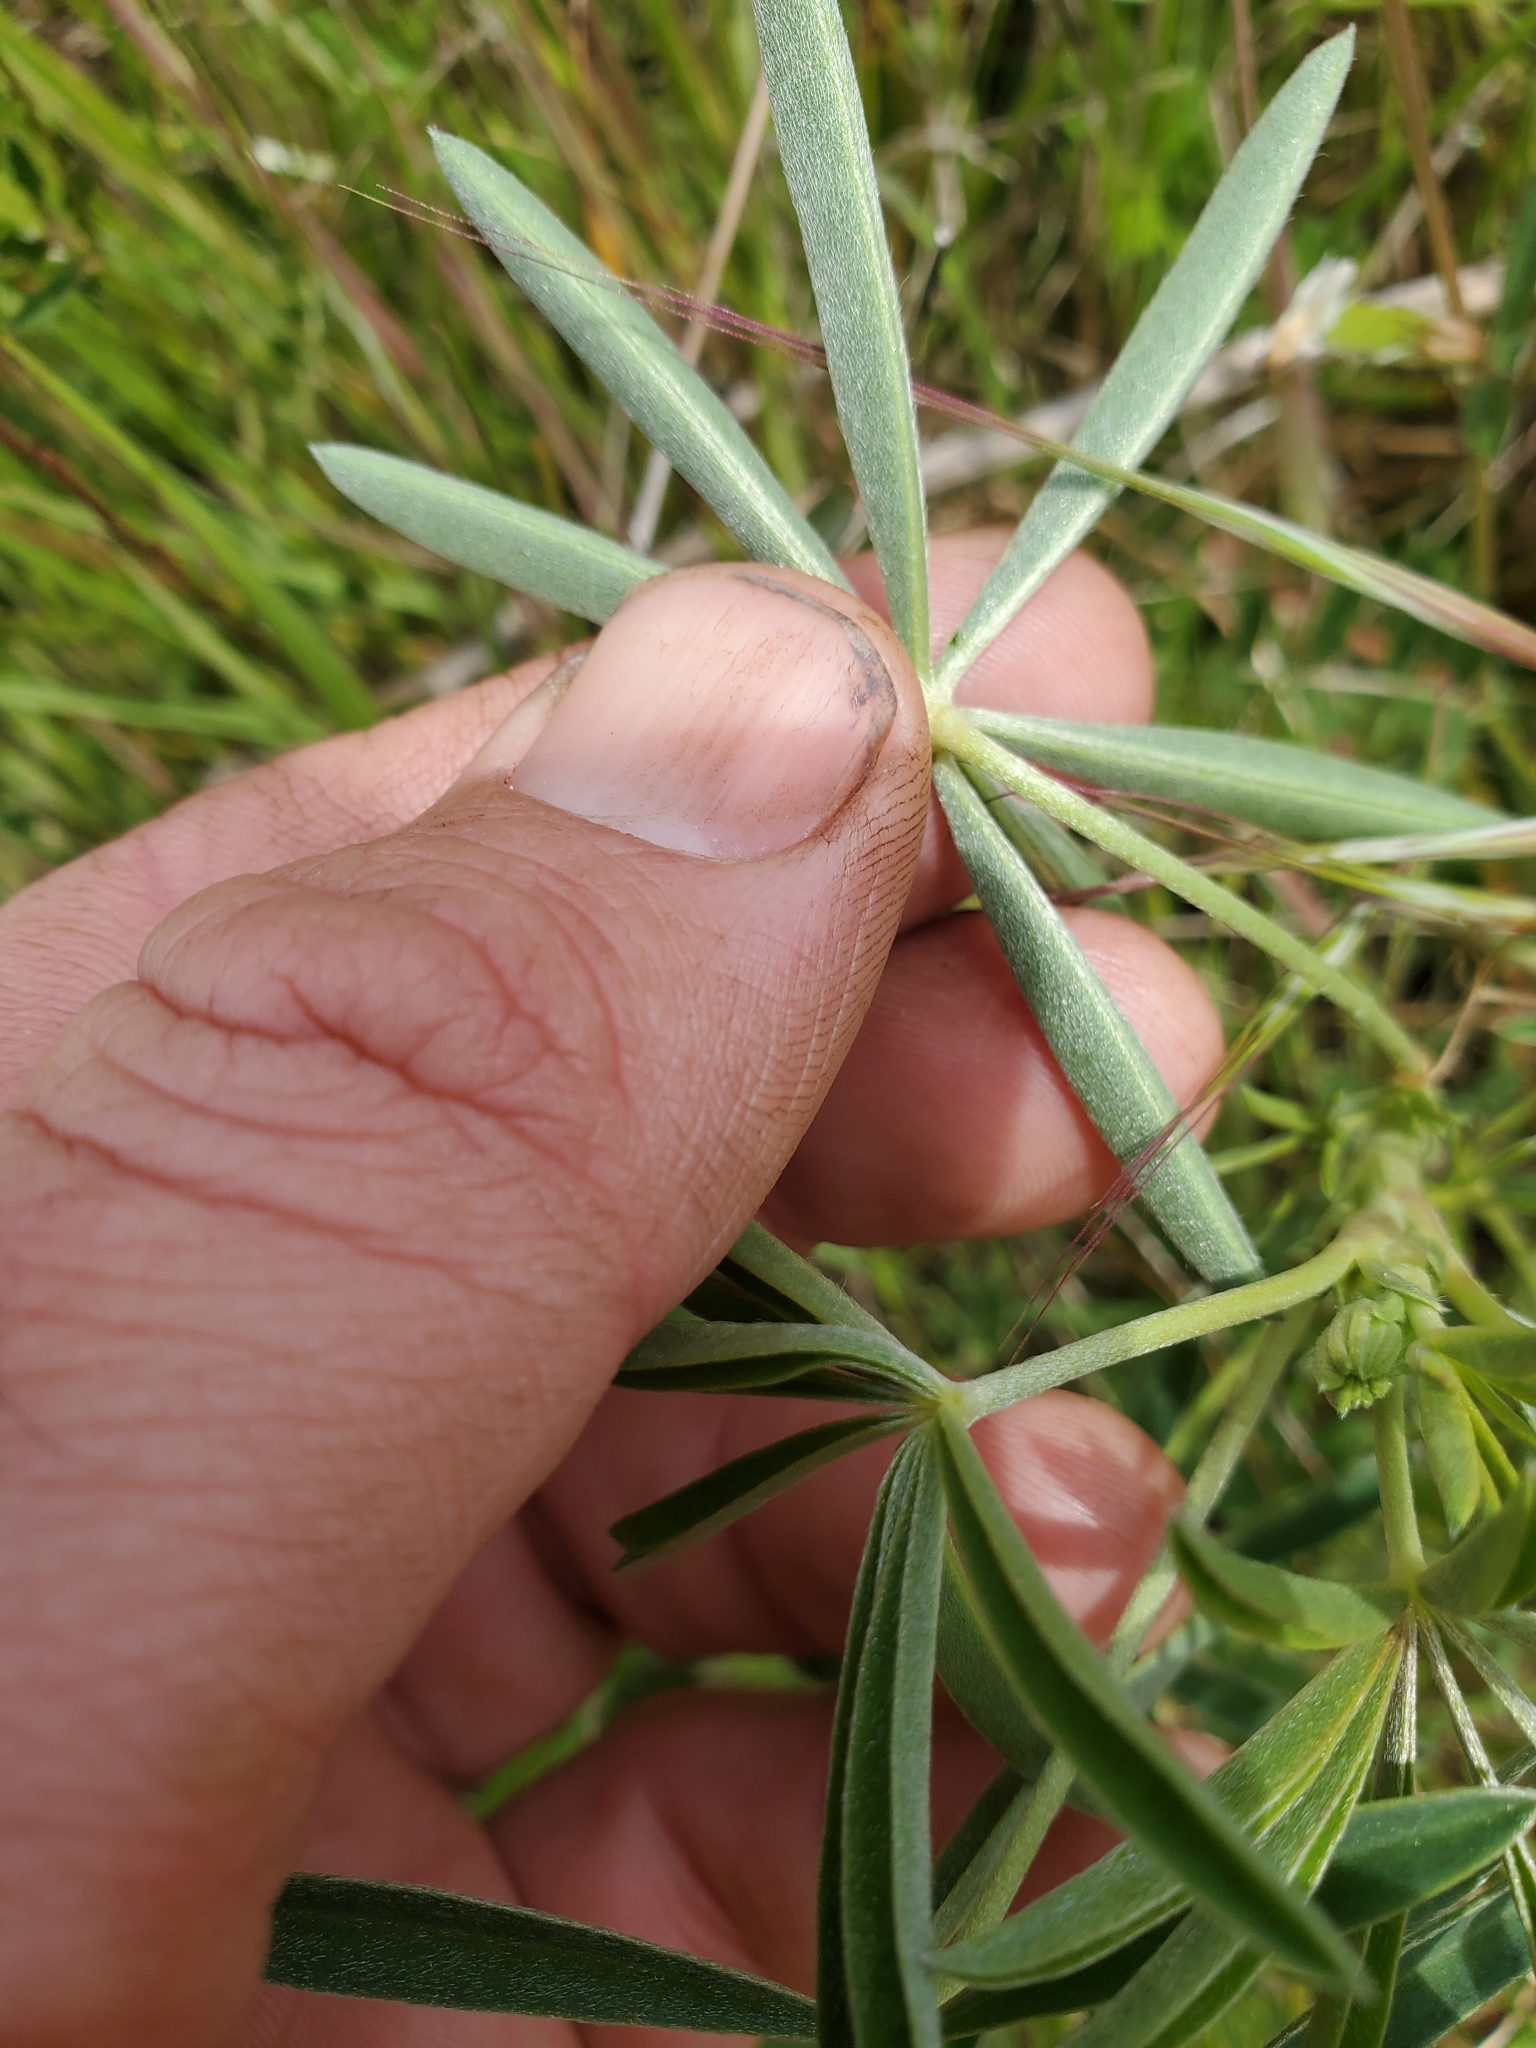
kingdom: Plantae
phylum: Tracheophyta
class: Magnoliopsida
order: Fabales
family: Fabaceae
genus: Lupinus
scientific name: Lupinus arboreus
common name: Yellow bush lupine
